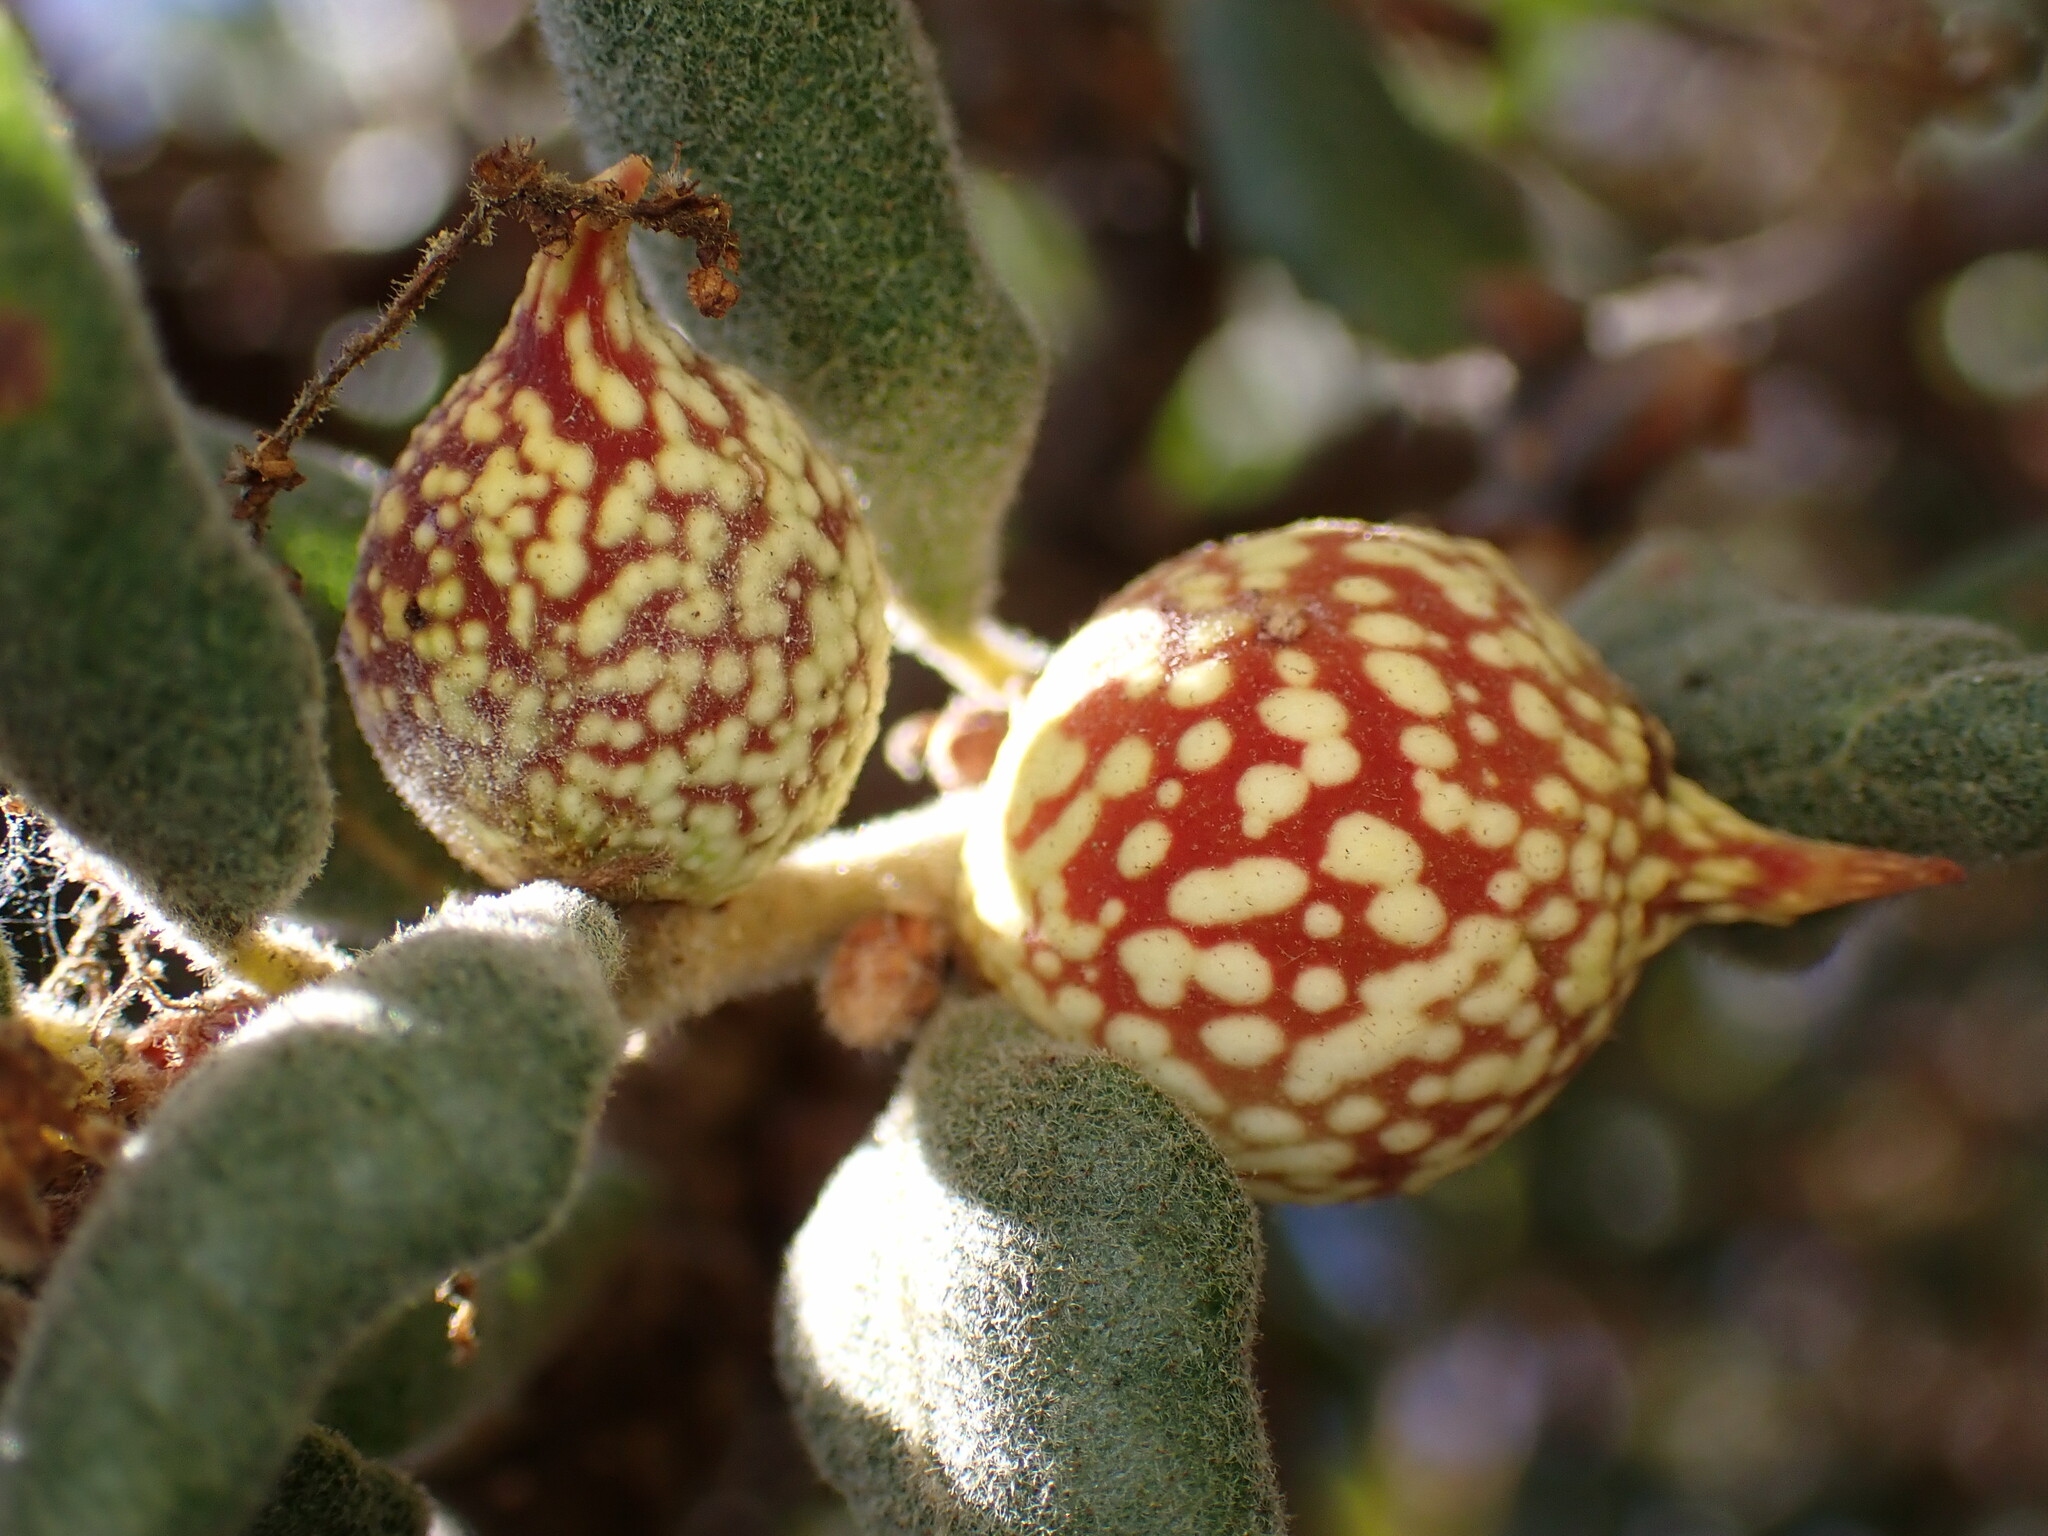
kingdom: Animalia
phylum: Arthropoda
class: Insecta
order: Hymenoptera
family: Cynipidae
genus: Burnettweldia
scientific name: Burnettweldia
